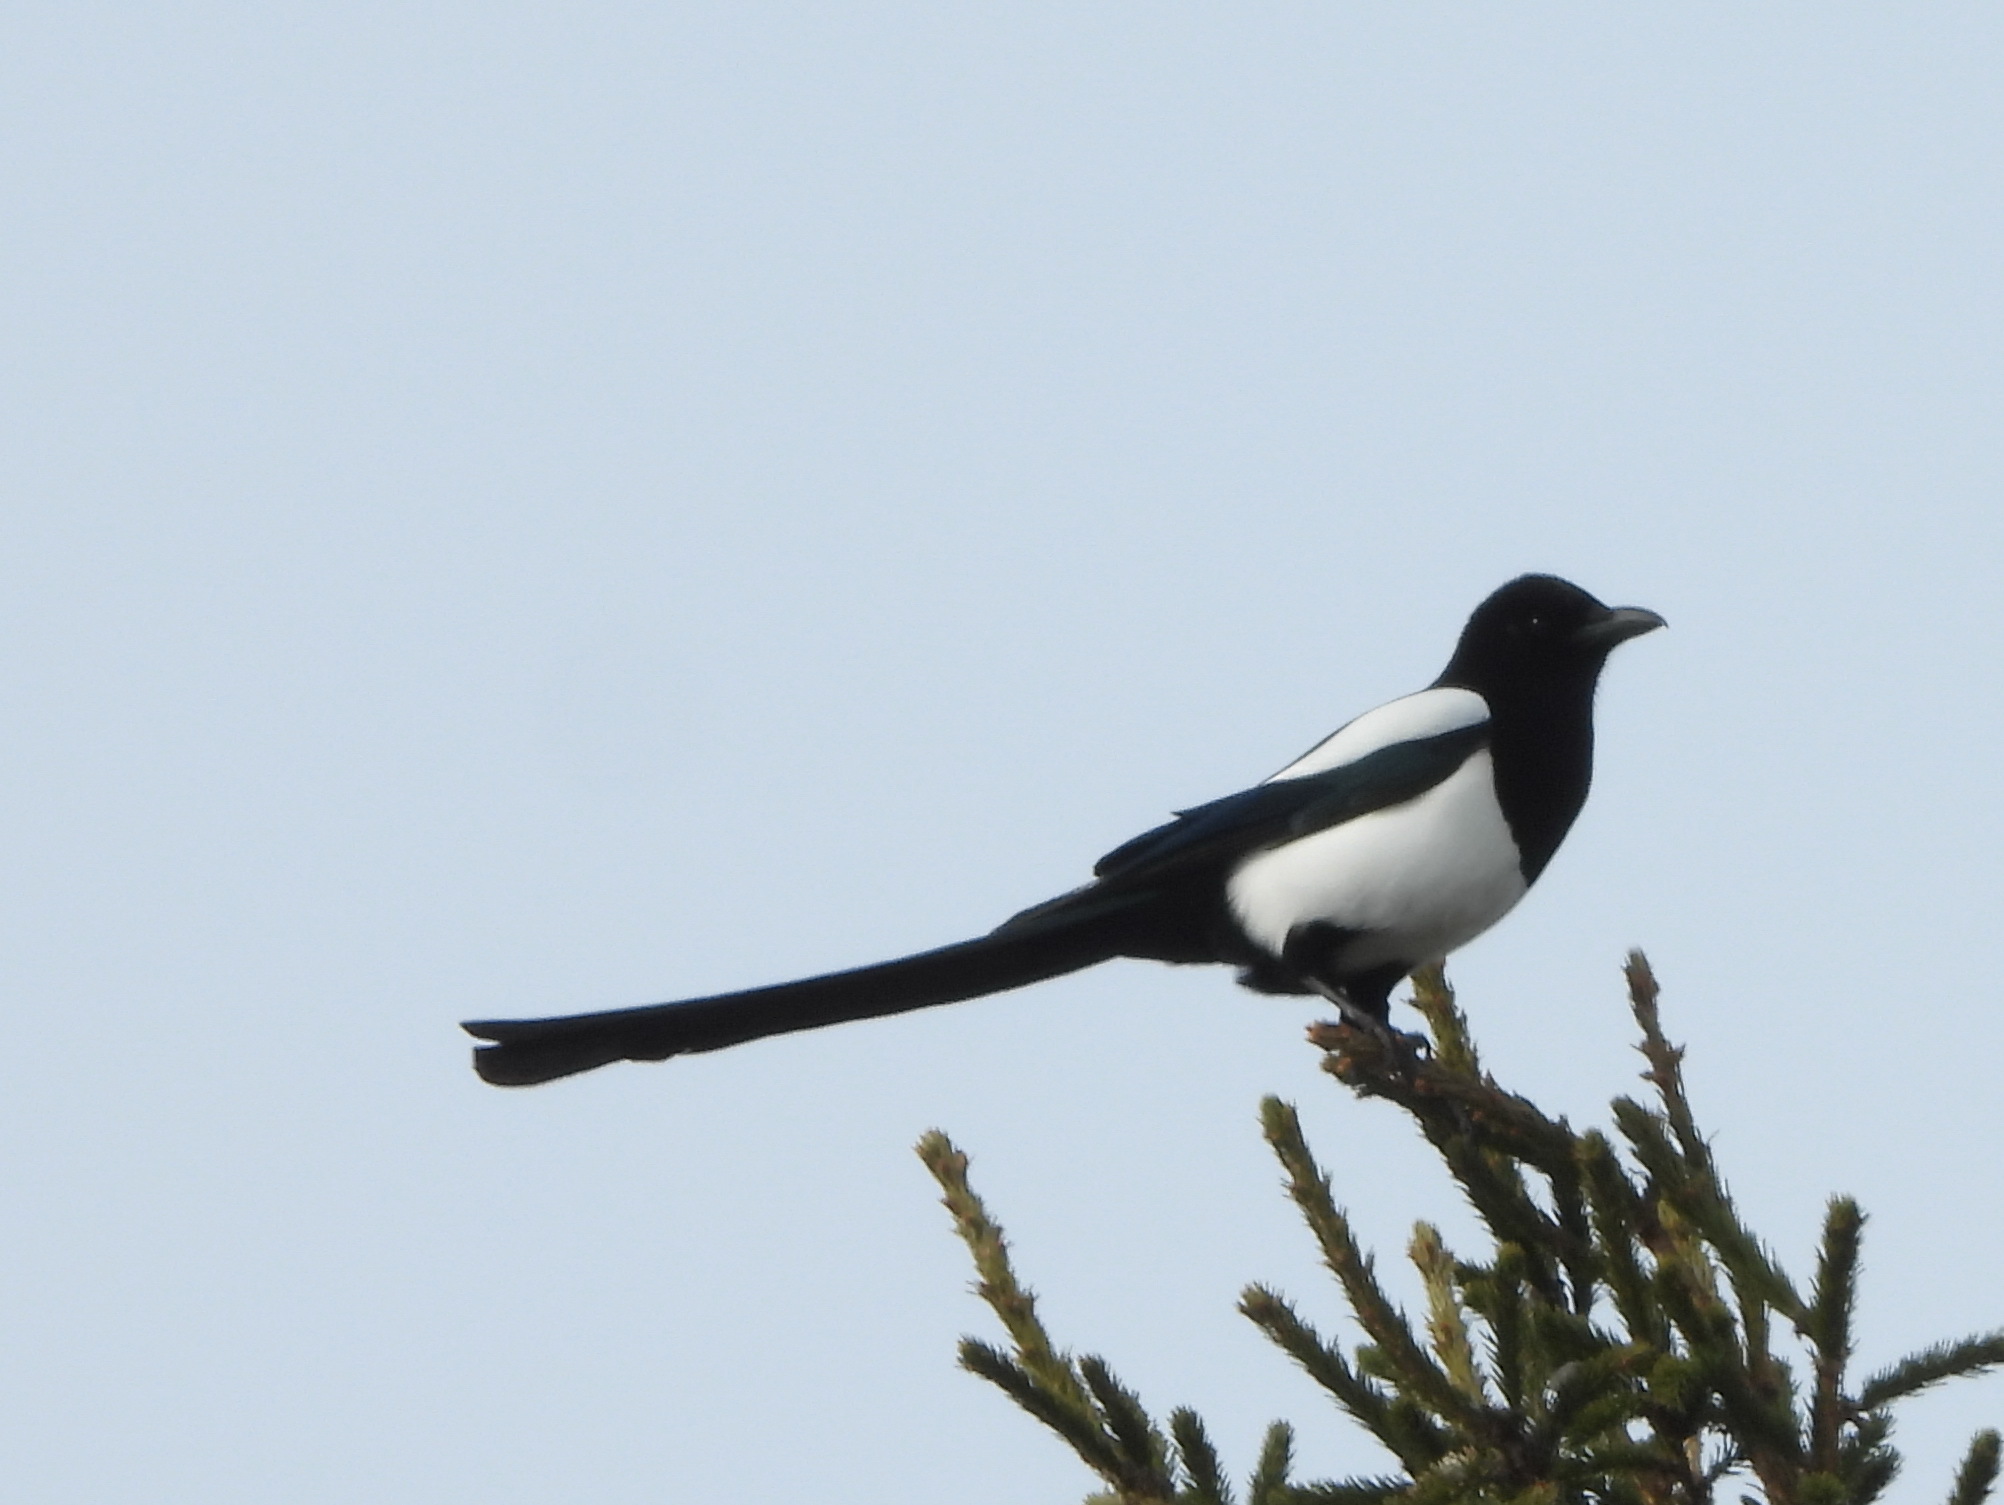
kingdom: Animalia
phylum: Chordata
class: Aves
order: Passeriformes
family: Corvidae
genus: Pica
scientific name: Pica pica
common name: Eurasian magpie
